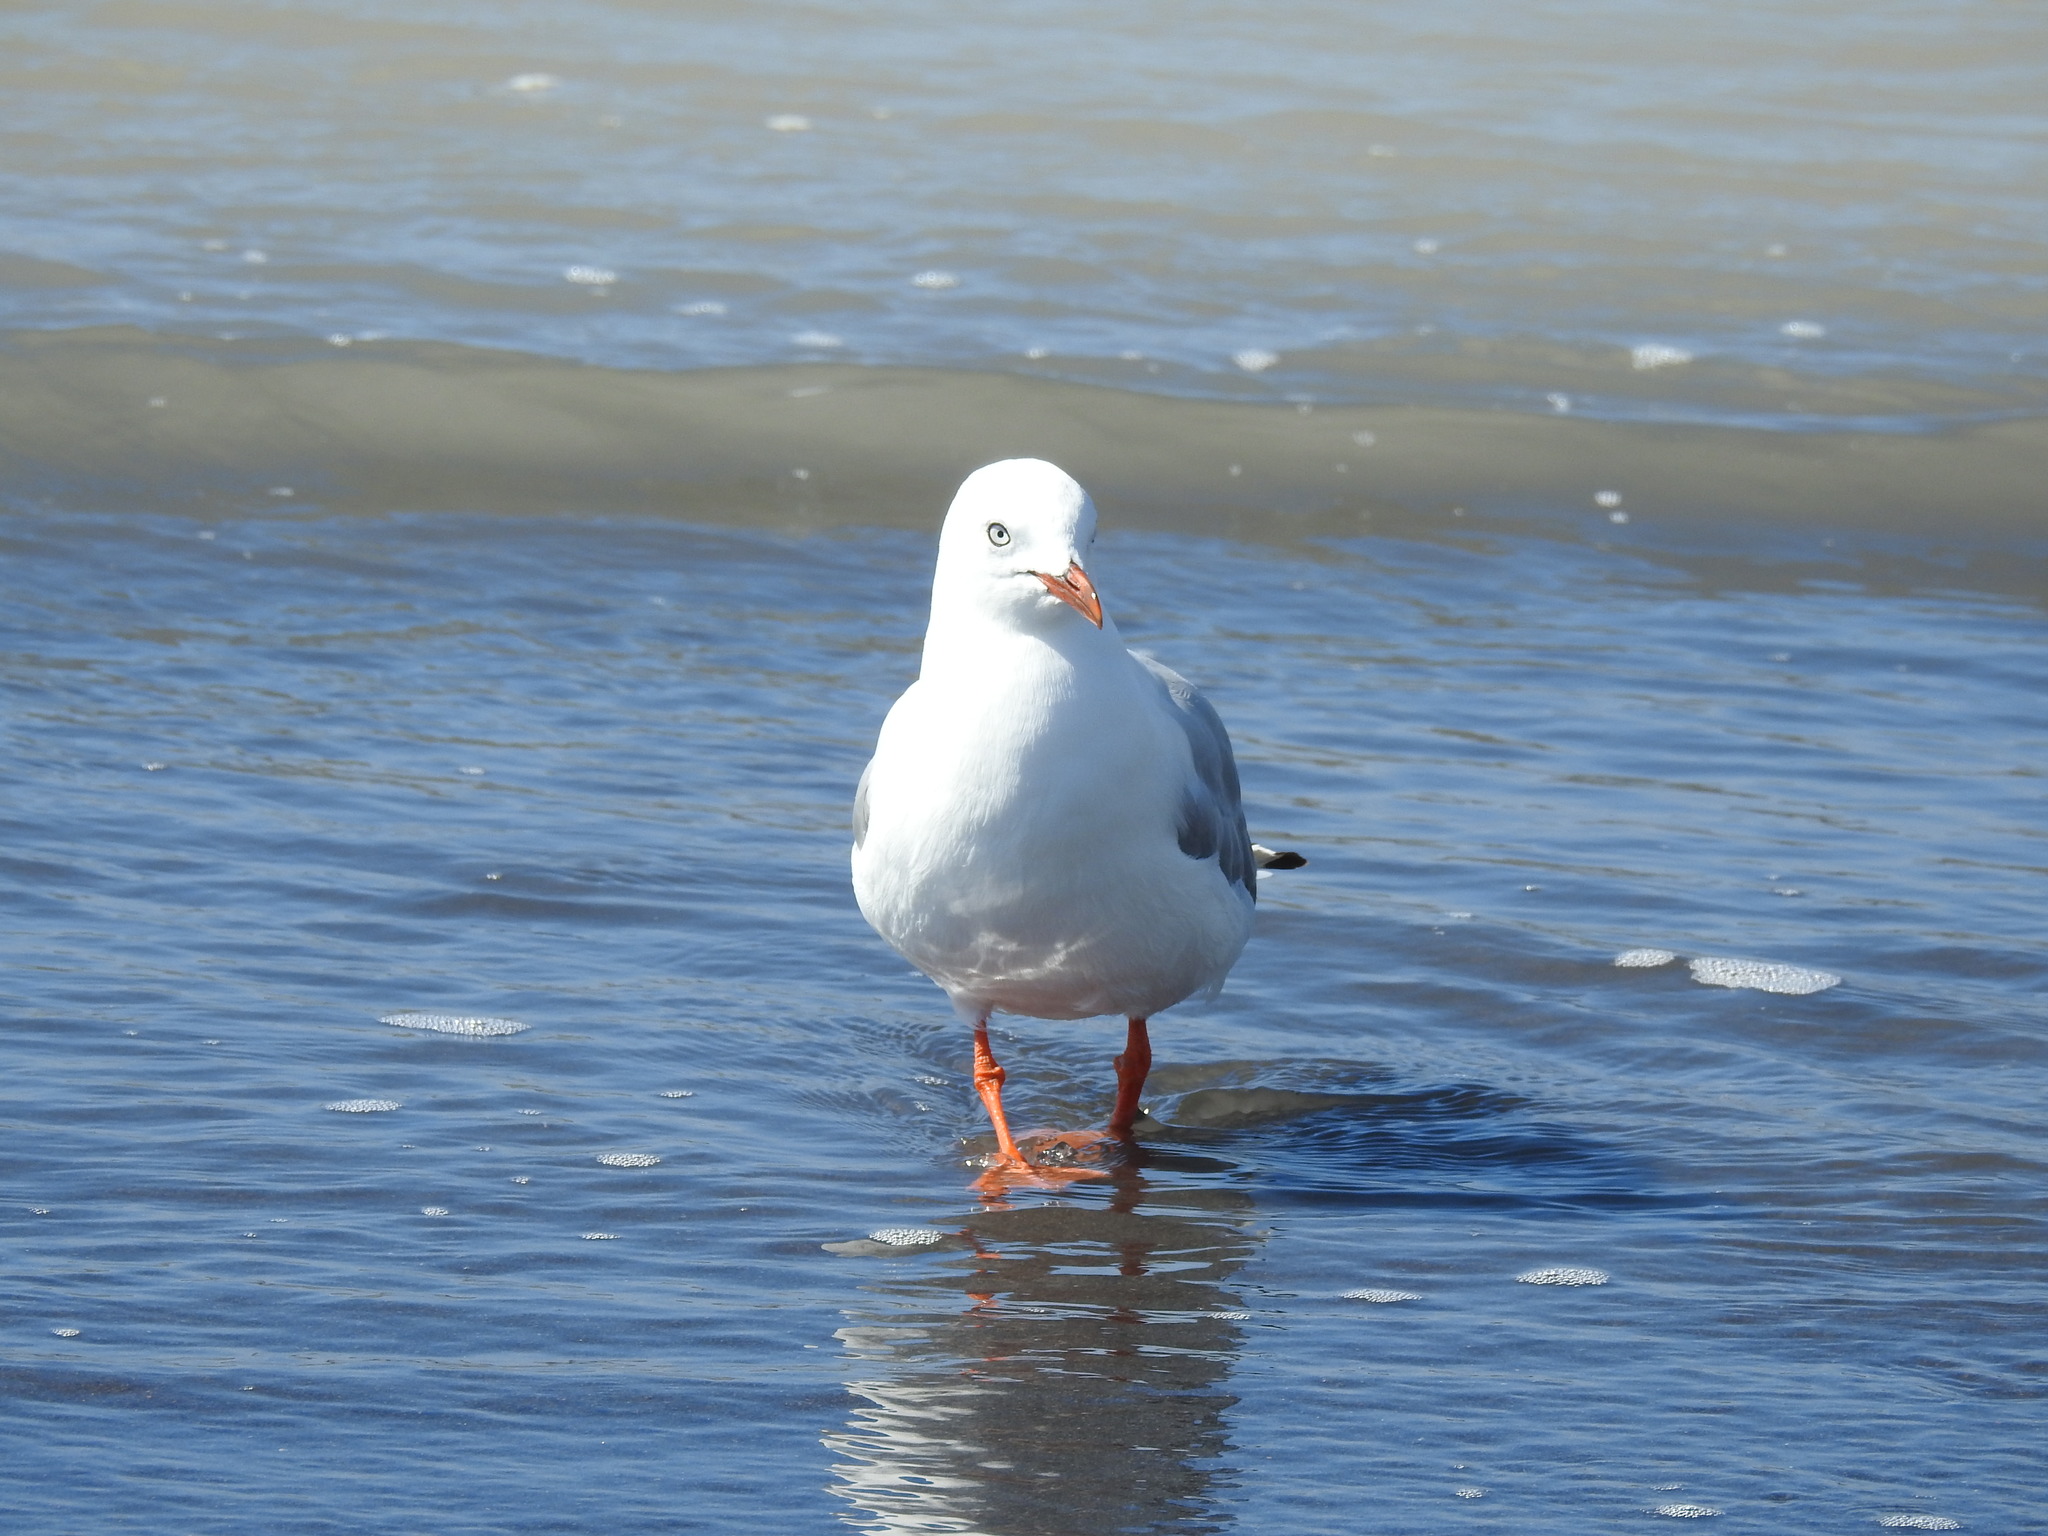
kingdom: Animalia
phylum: Chordata
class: Aves
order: Charadriiformes
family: Laridae
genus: Chroicocephalus
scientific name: Chroicocephalus novaehollandiae
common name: Silver gull
